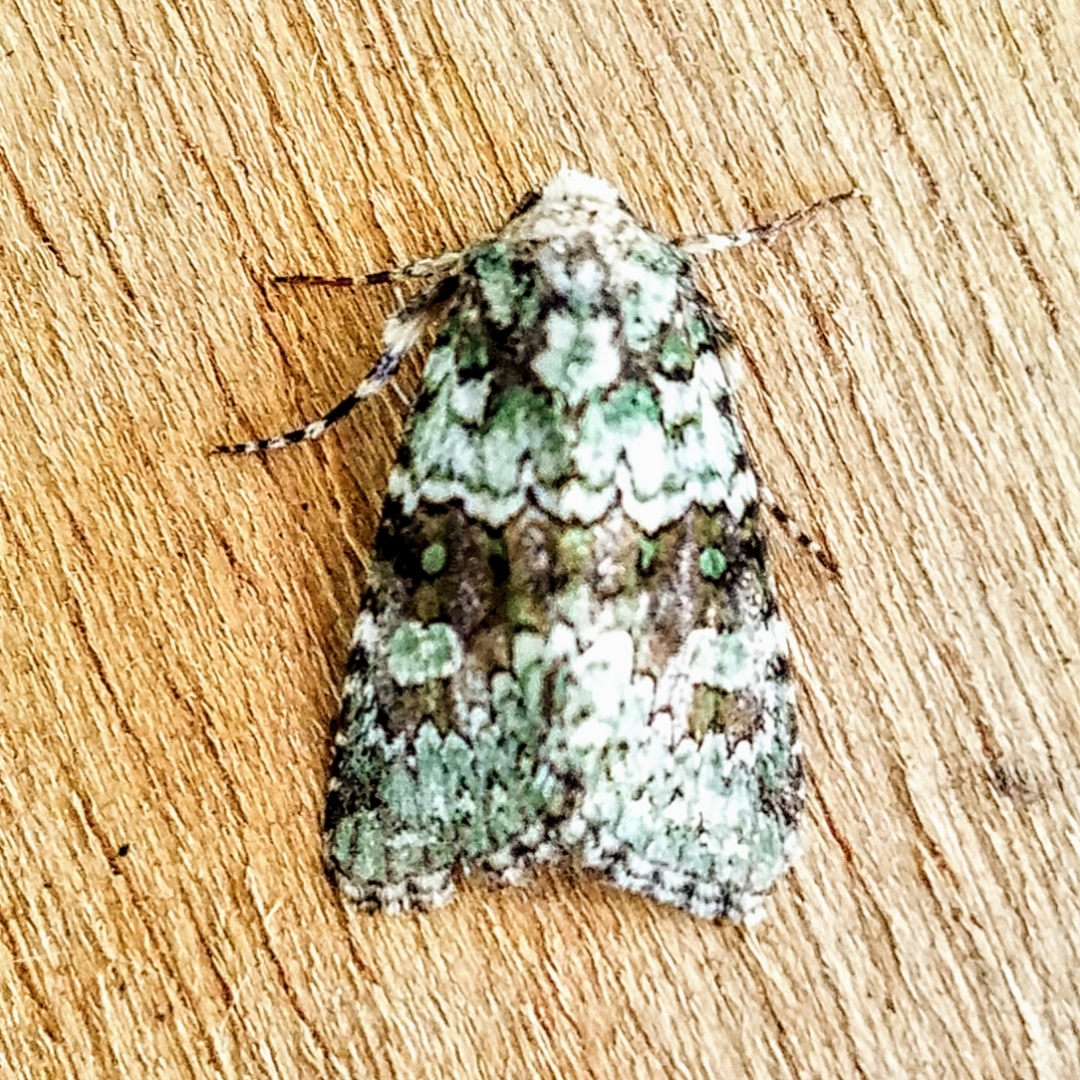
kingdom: Animalia
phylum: Arthropoda
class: Insecta
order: Lepidoptera
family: Noctuidae
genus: Lacinipolia
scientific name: Lacinipolia strigicollis
